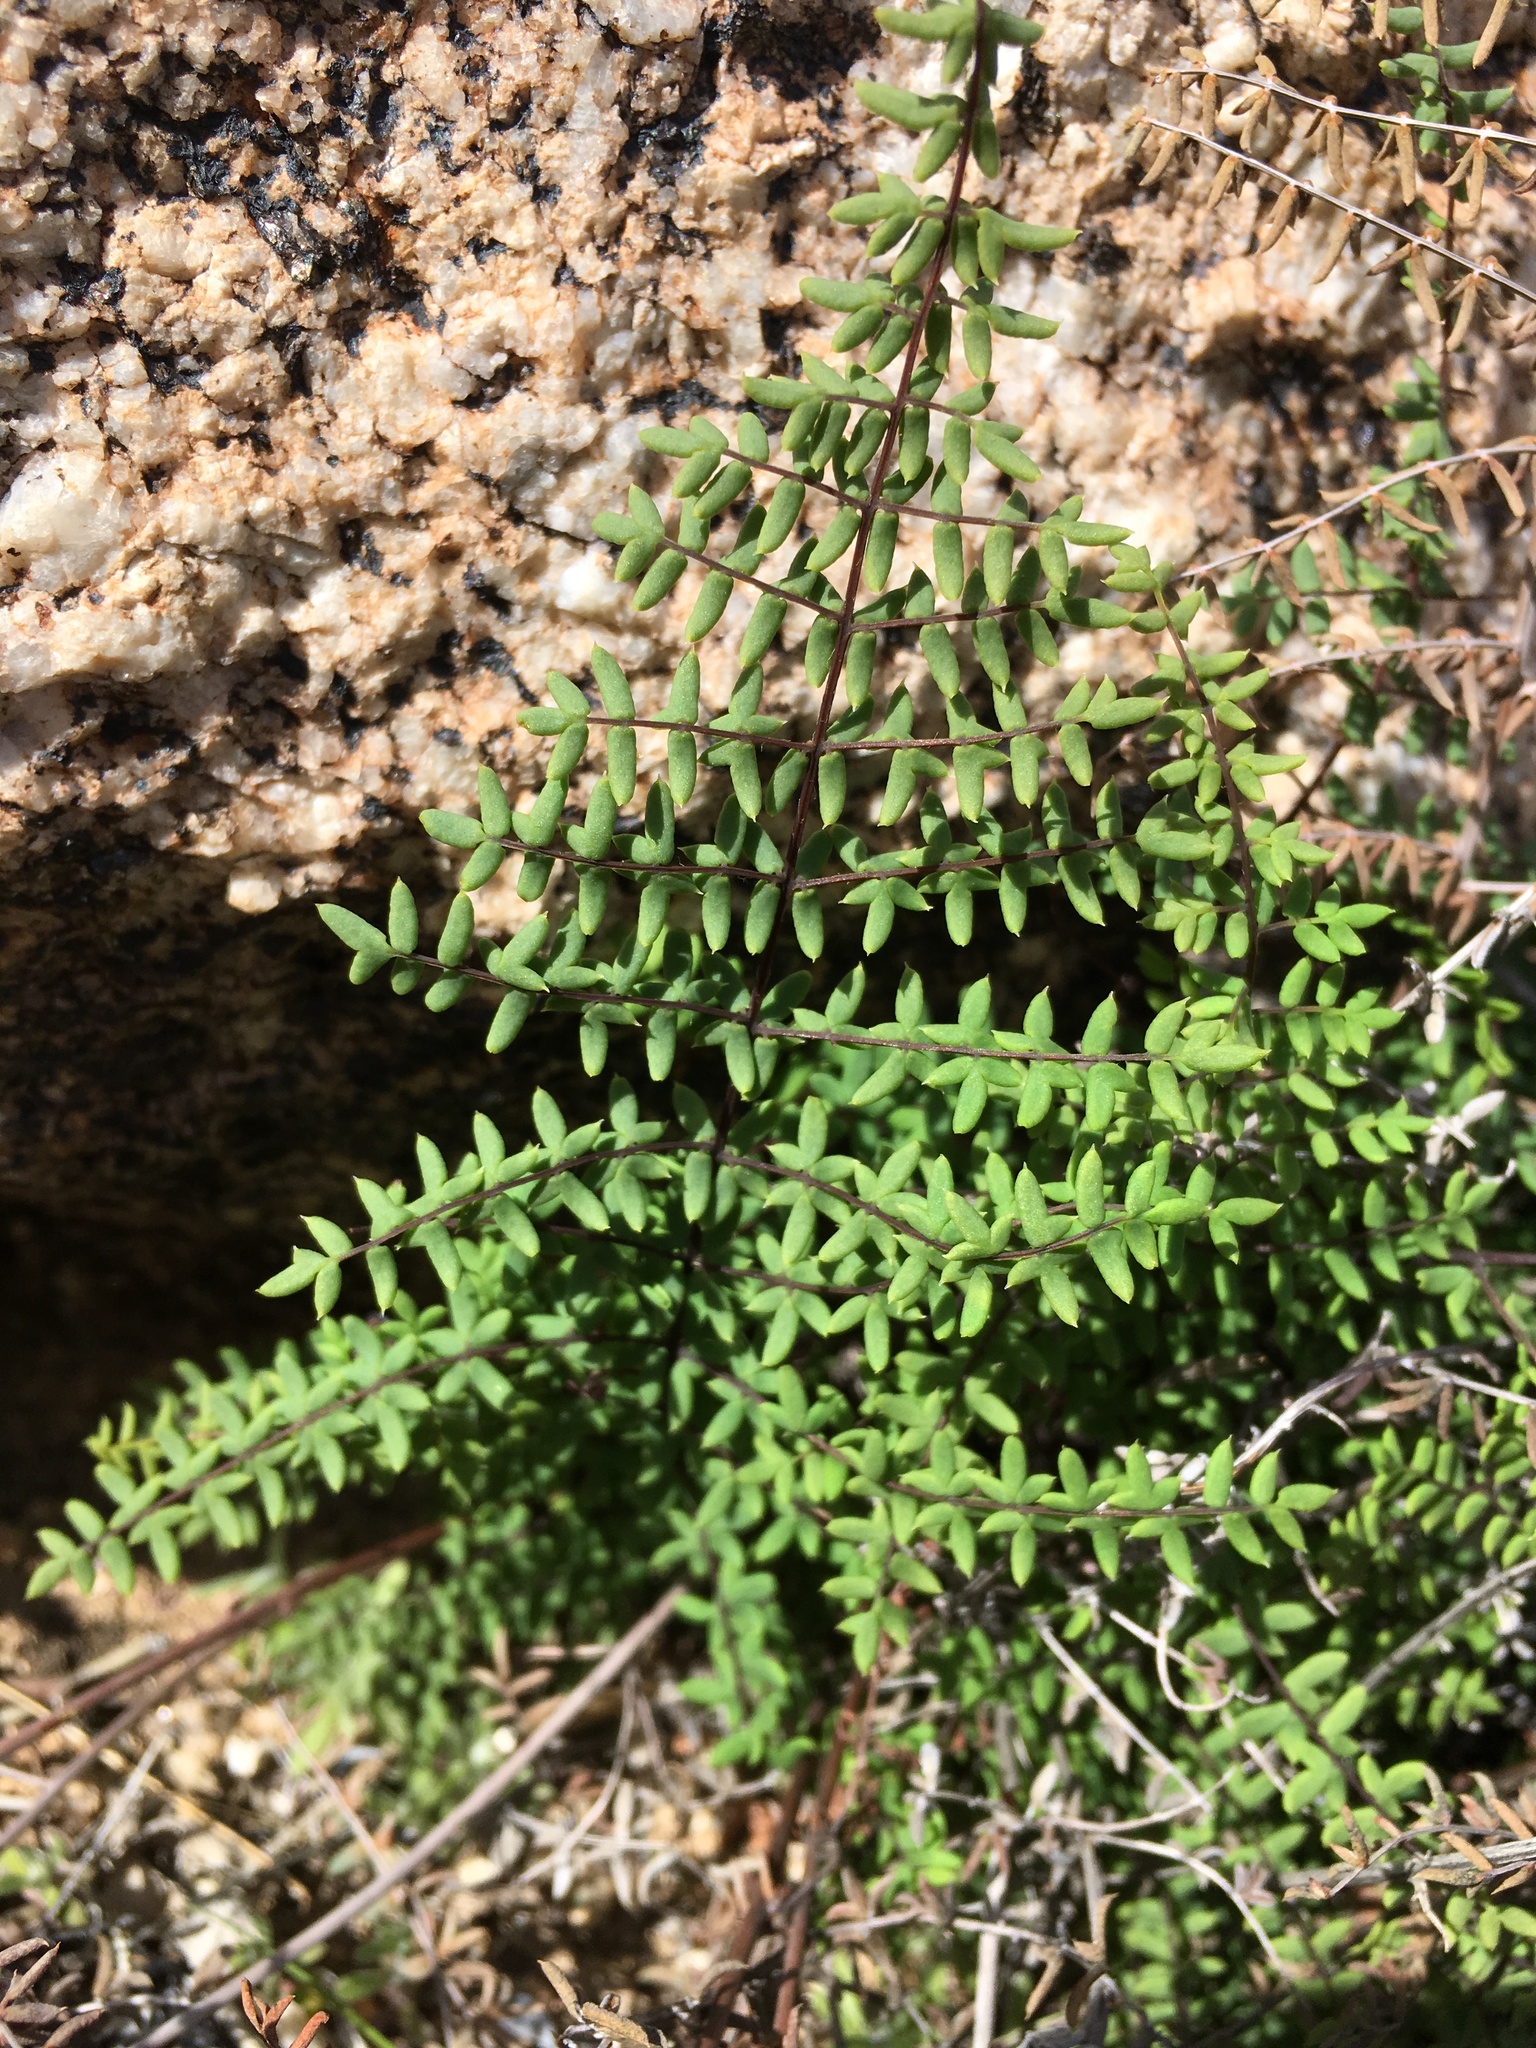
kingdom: Plantae
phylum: Tracheophyta
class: Polypodiopsida
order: Polypodiales
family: Pteridaceae
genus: Pellaea
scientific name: Pellaea mucronata
